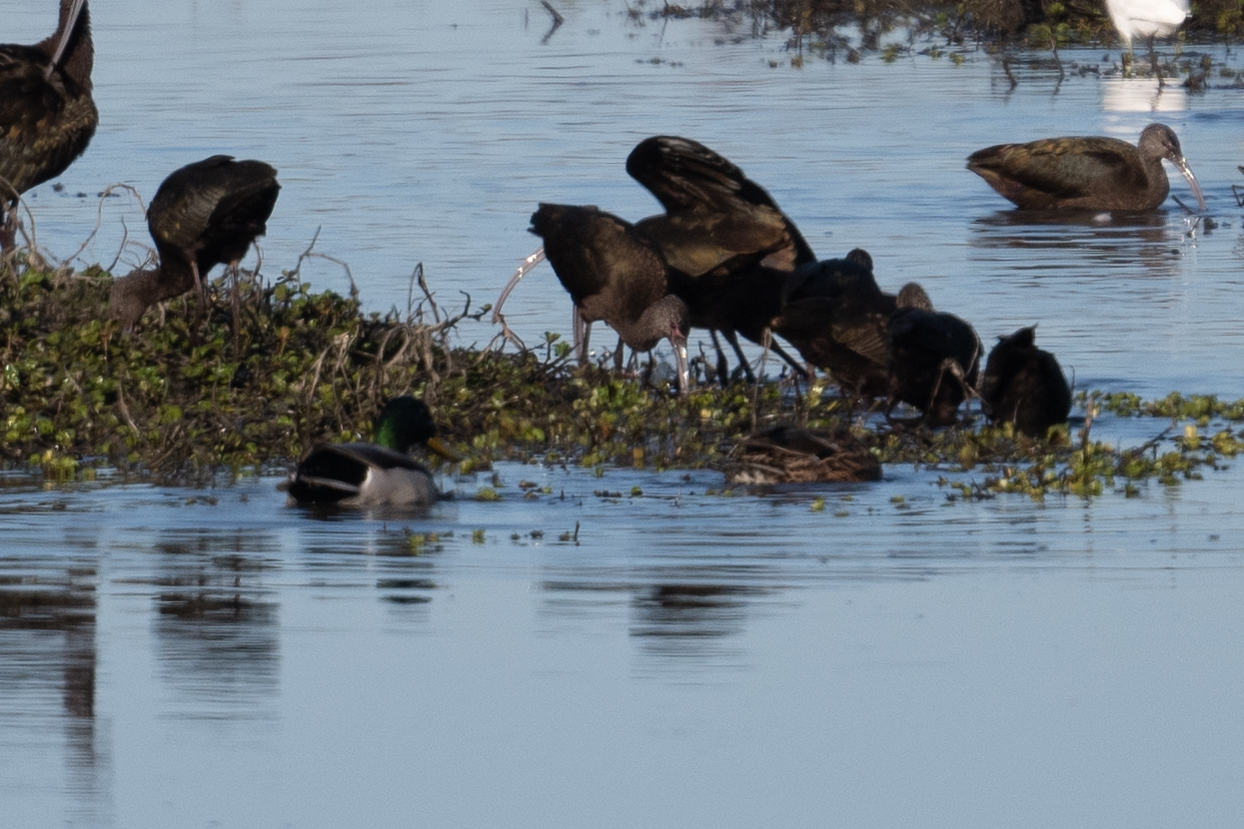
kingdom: Animalia
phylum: Chordata
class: Aves
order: Pelecaniformes
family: Threskiornithidae
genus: Plegadis
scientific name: Plegadis chihi
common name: White-faced ibis
